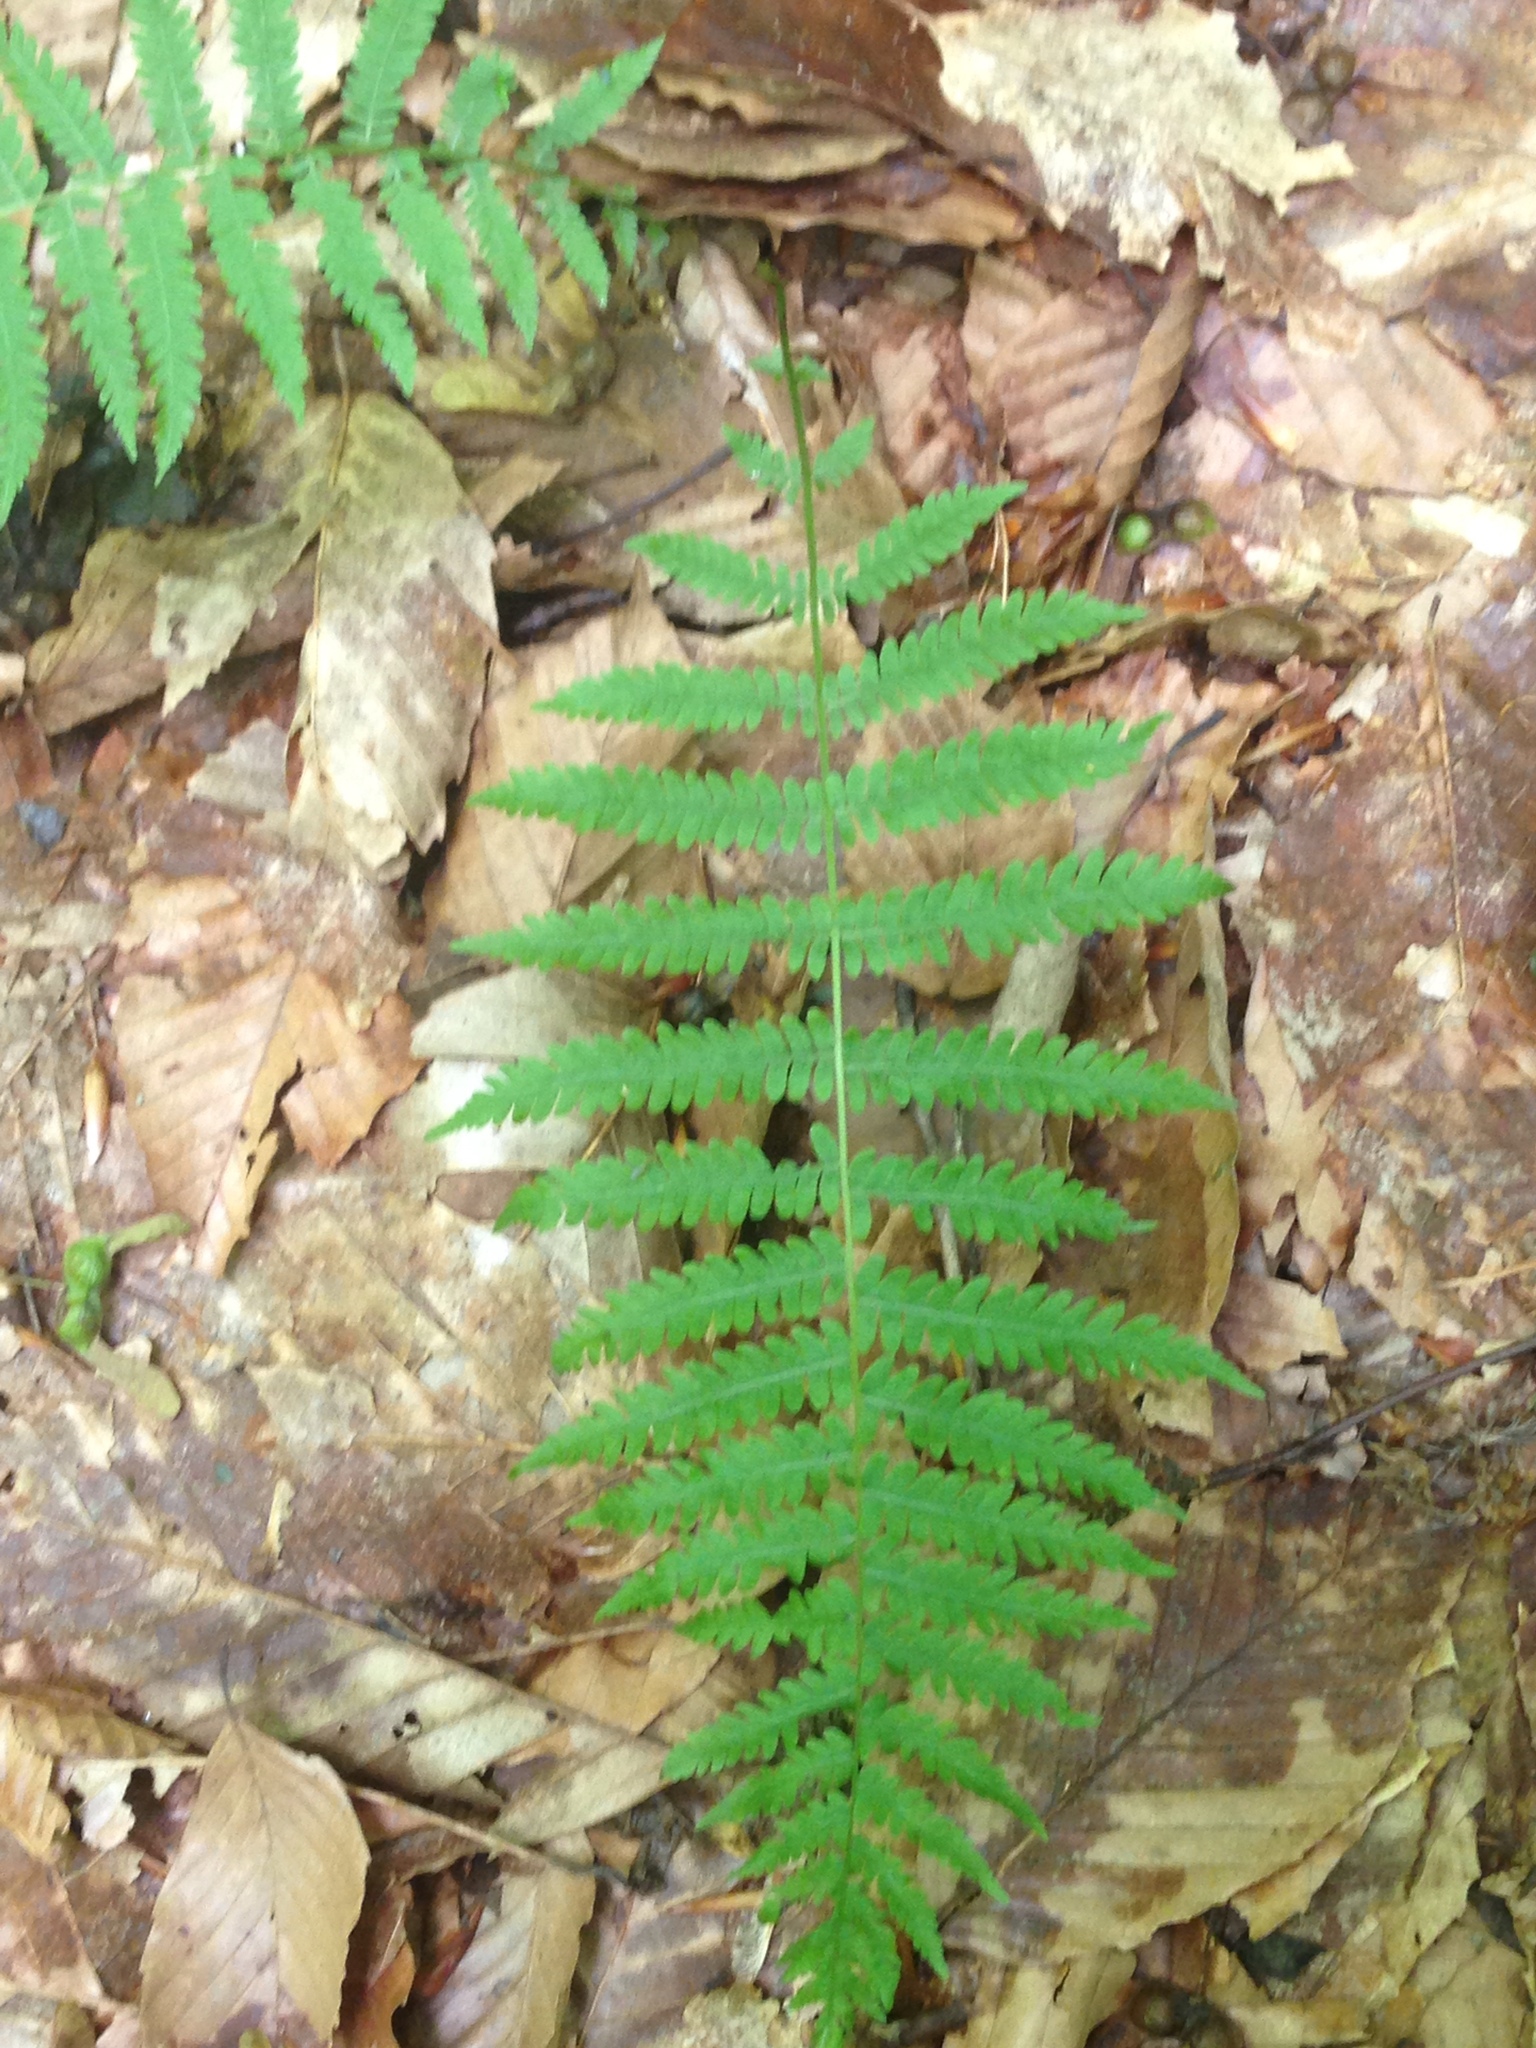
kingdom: Plantae
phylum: Tracheophyta
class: Polypodiopsida
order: Polypodiales
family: Thelypteridaceae
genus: Amauropelta
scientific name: Amauropelta noveboracensis
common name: New york fern
